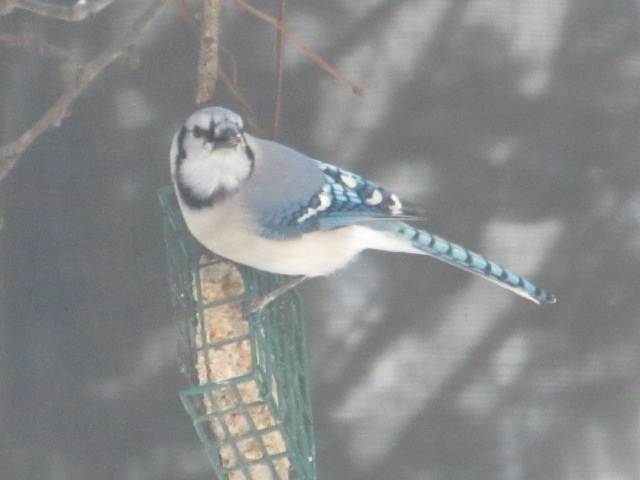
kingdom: Animalia
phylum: Chordata
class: Aves
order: Passeriformes
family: Corvidae
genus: Cyanocitta
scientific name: Cyanocitta cristata
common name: Blue jay
